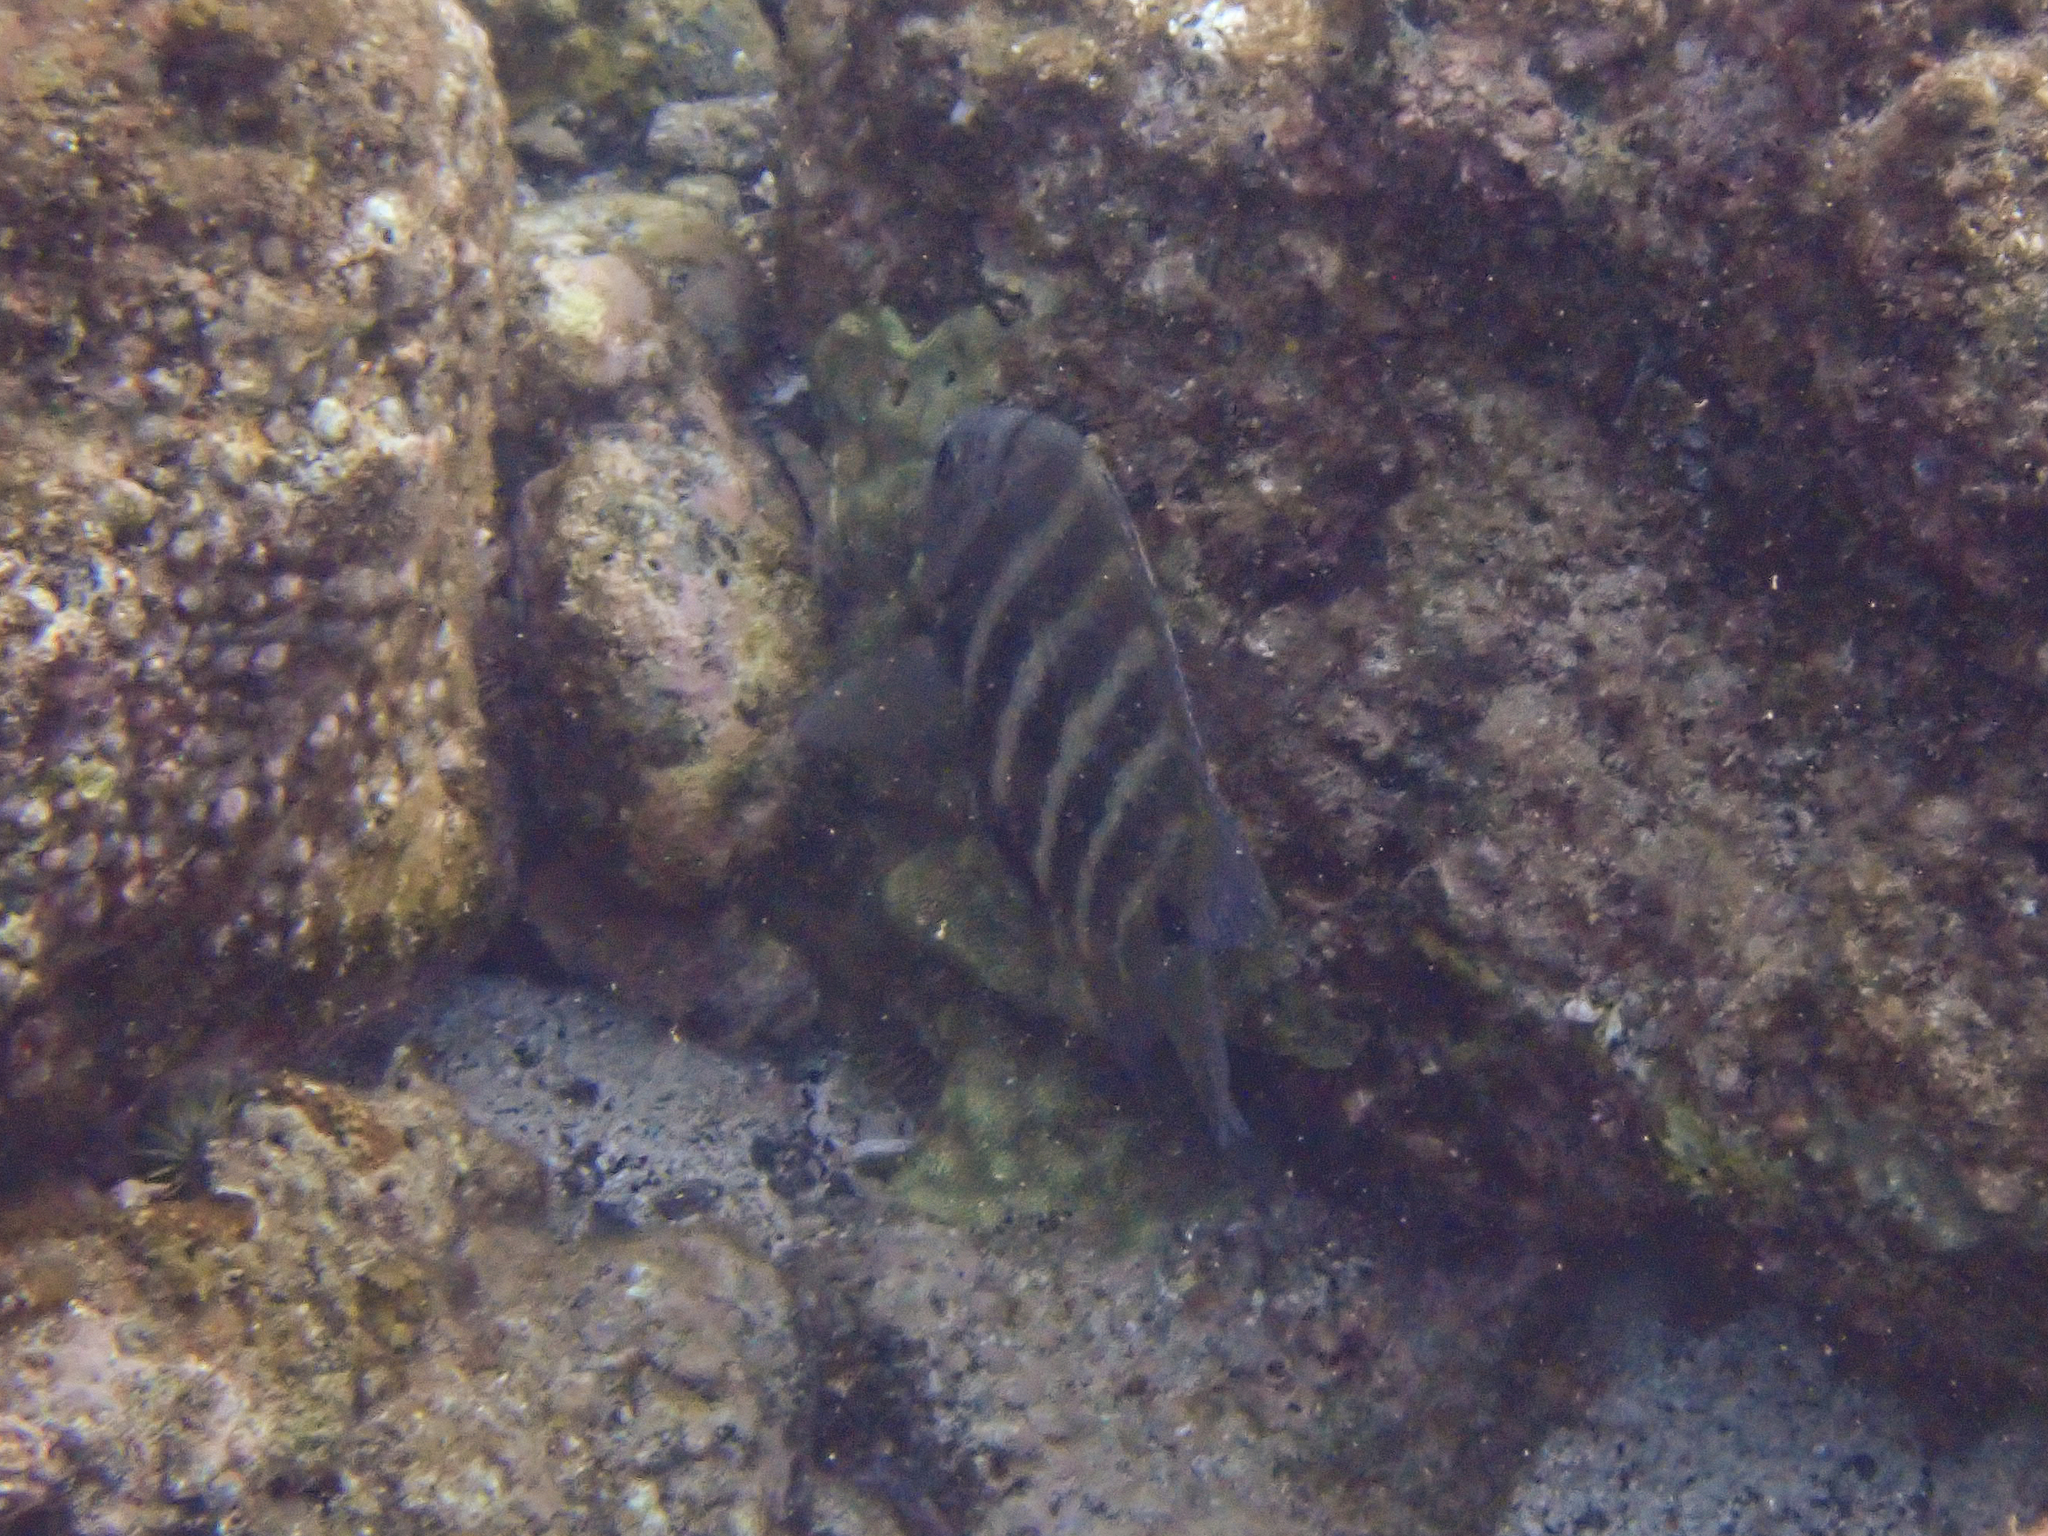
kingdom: Animalia
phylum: Chordata
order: Perciformes
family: Pomacentridae
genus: Abudefduf
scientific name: Abudefduf sordidus
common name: Blackspot sergeant
